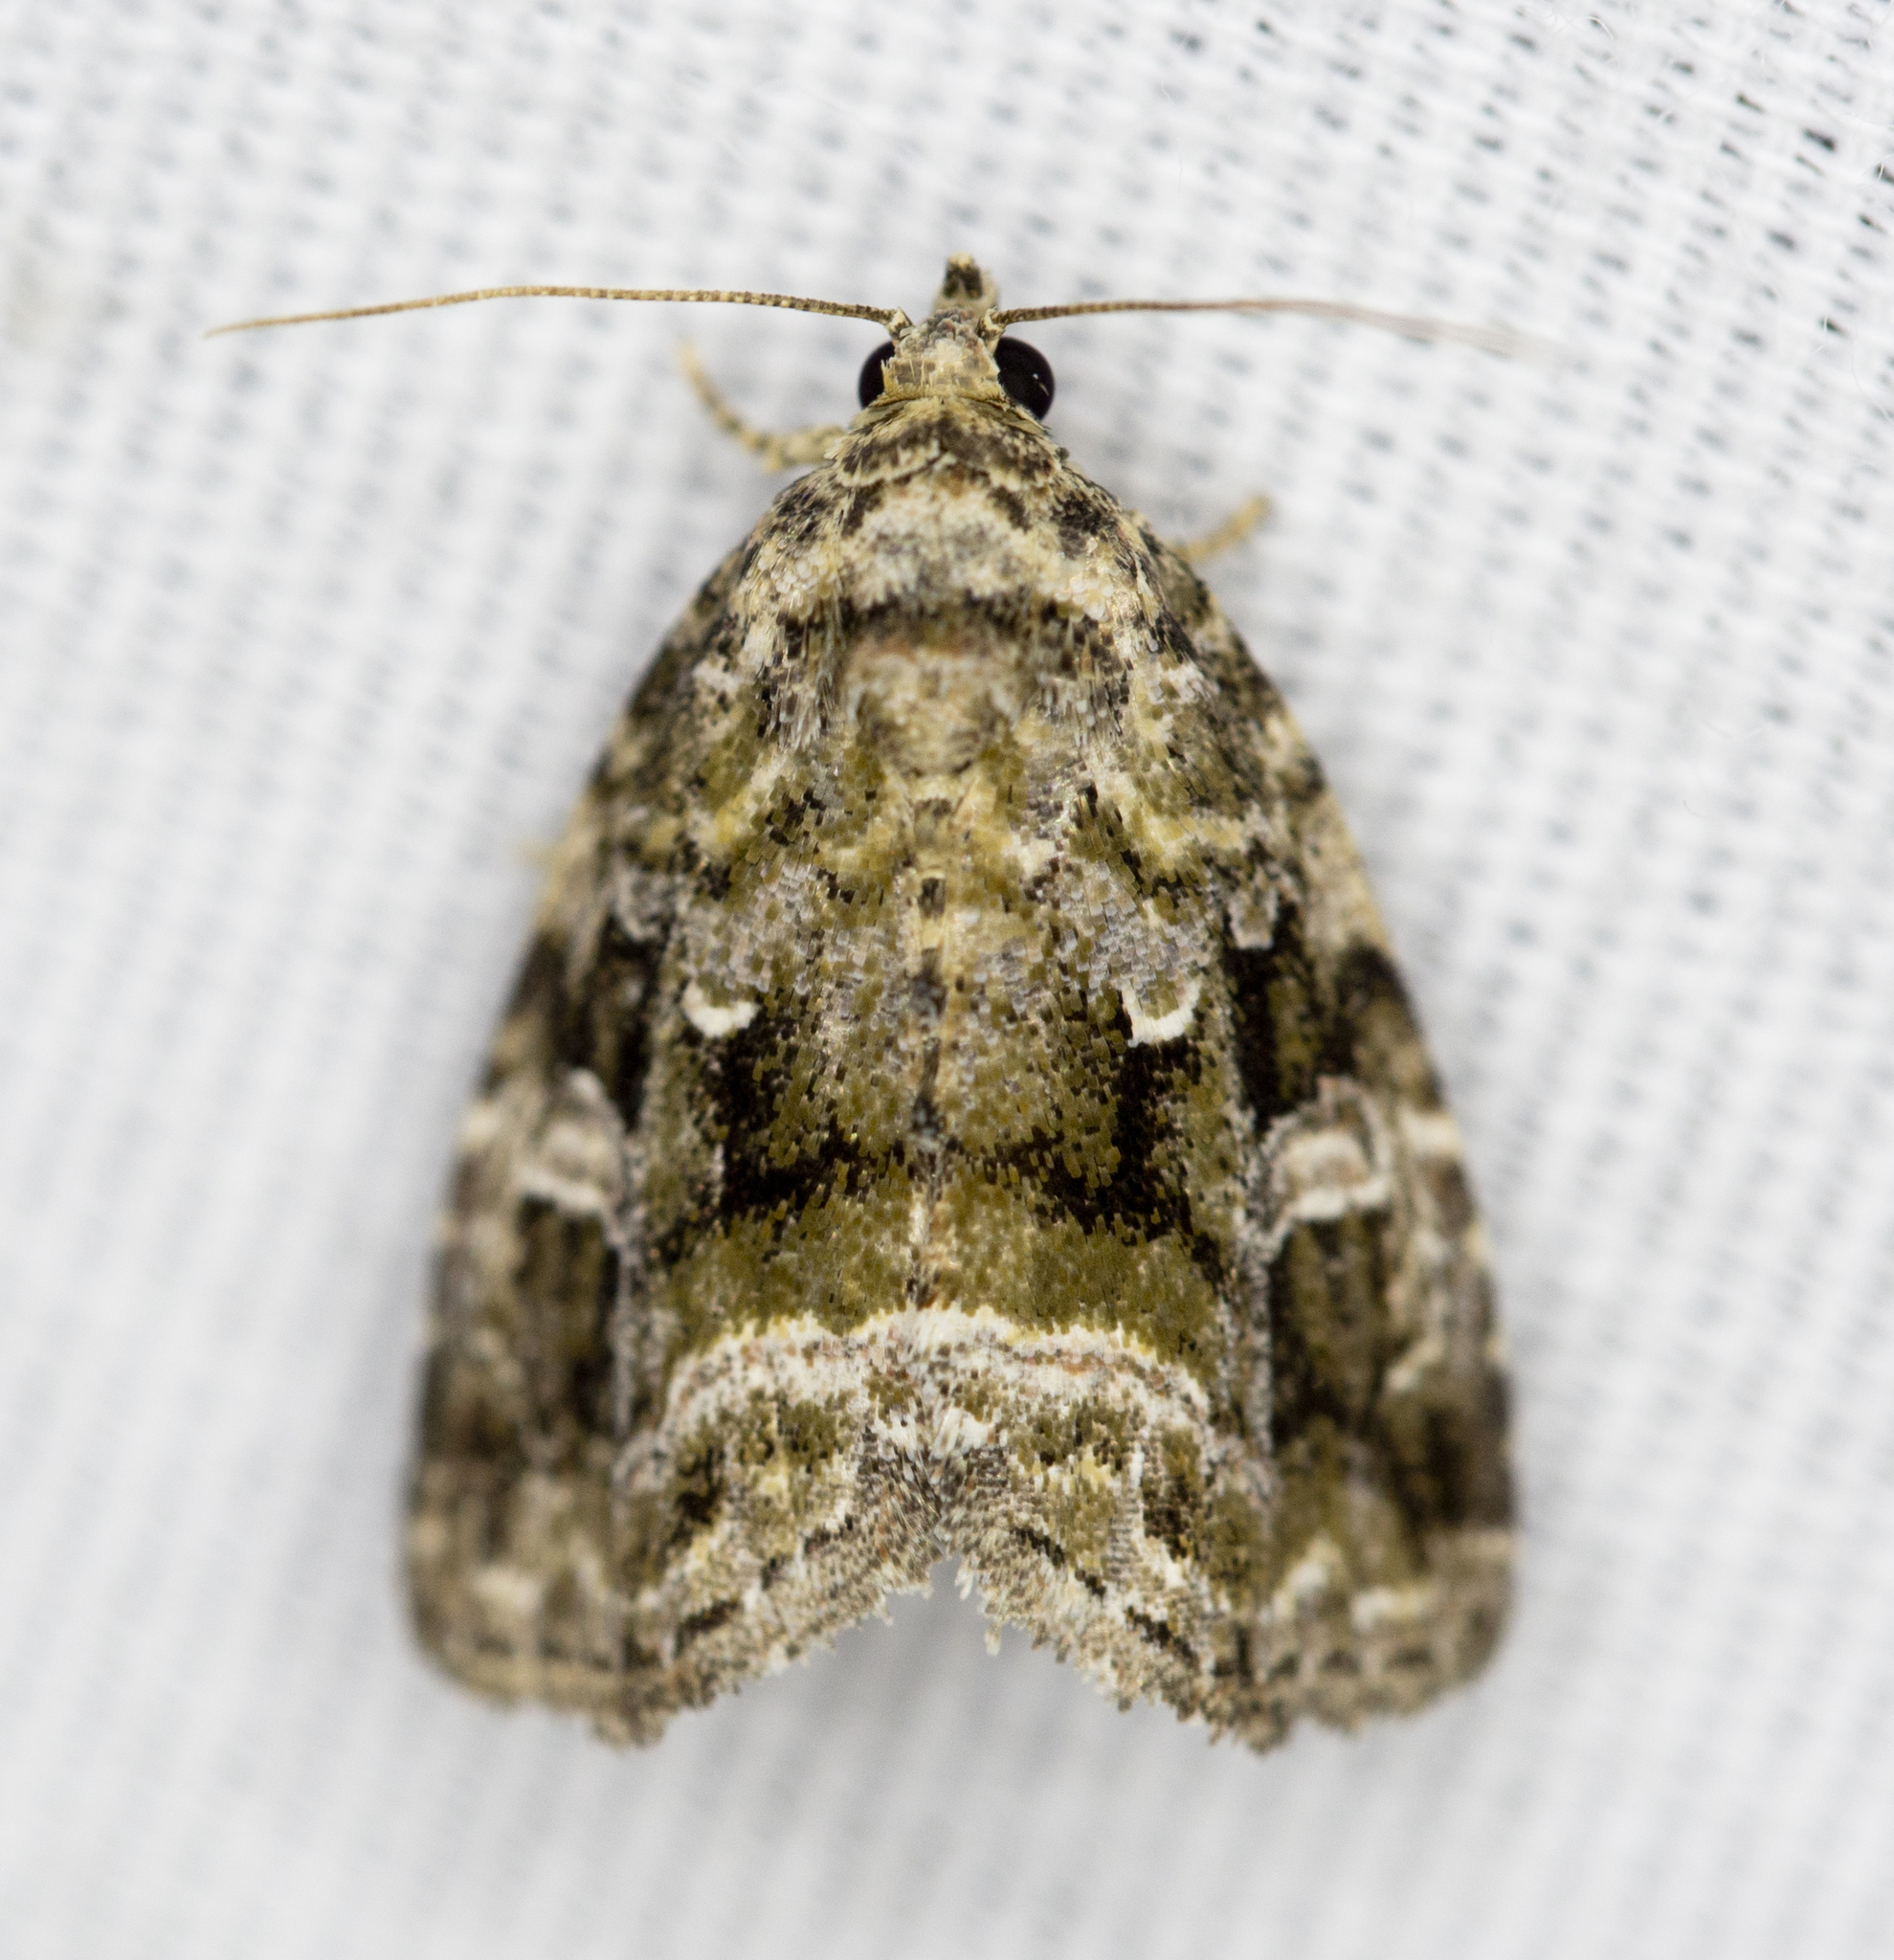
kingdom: Animalia
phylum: Arthropoda
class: Insecta
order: Lepidoptera
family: Noctuidae
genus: Protodeltote
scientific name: Protodeltote muscosula
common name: Large mossy glyph
